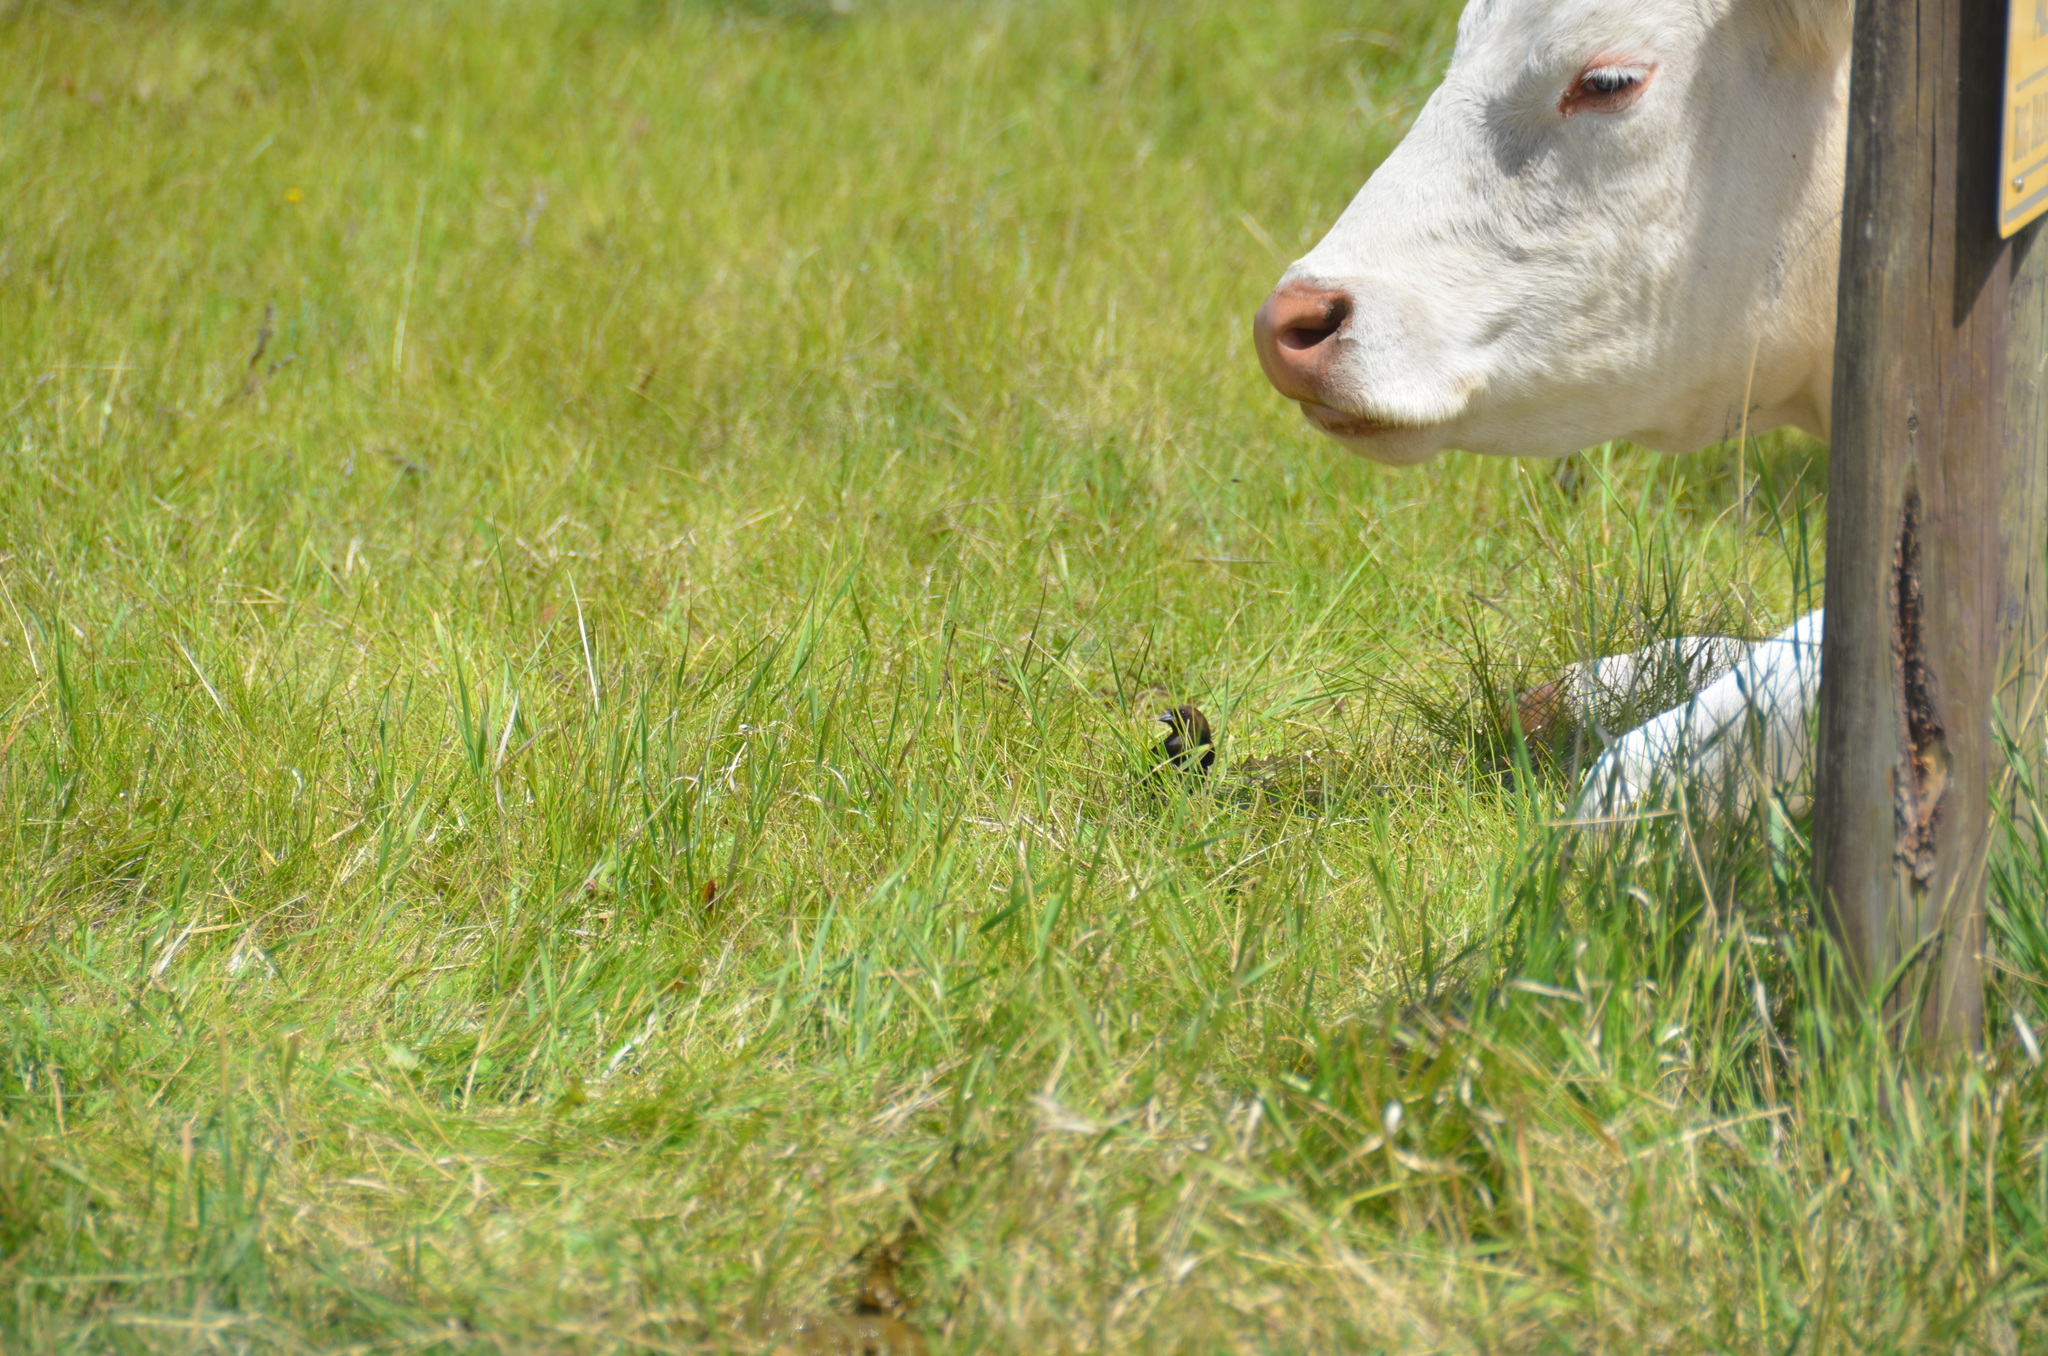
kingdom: Animalia
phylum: Chordata
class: Aves
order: Passeriformes
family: Icteridae
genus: Molothrus
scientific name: Molothrus ater
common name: Brown-headed cowbird
